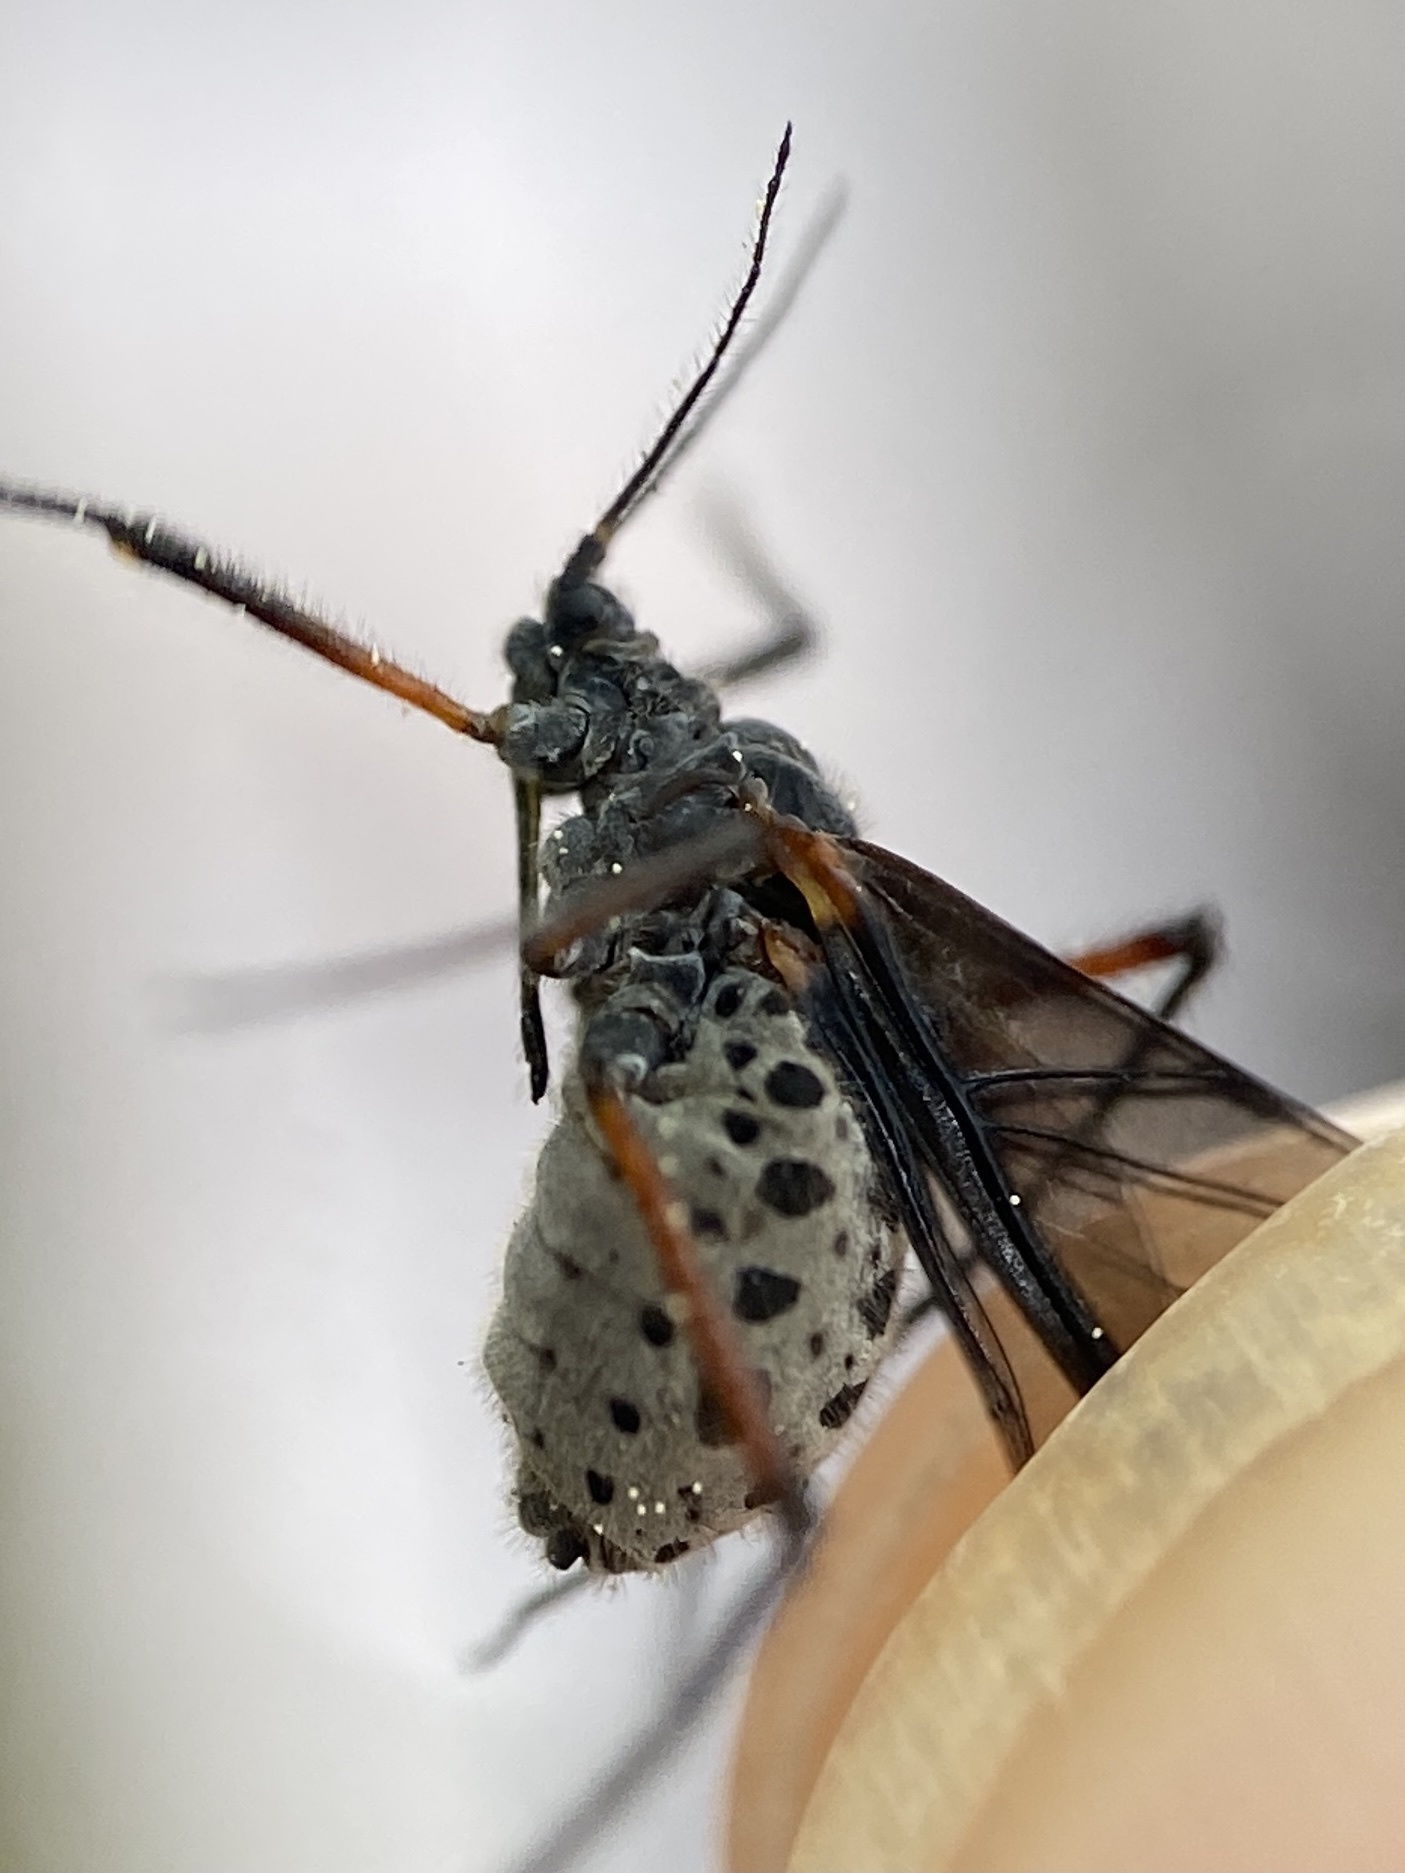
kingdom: Animalia
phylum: Arthropoda
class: Insecta
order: Hemiptera
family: Aphididae
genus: Longistigma
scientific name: Longistigma caryae
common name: Giant bark aphid
